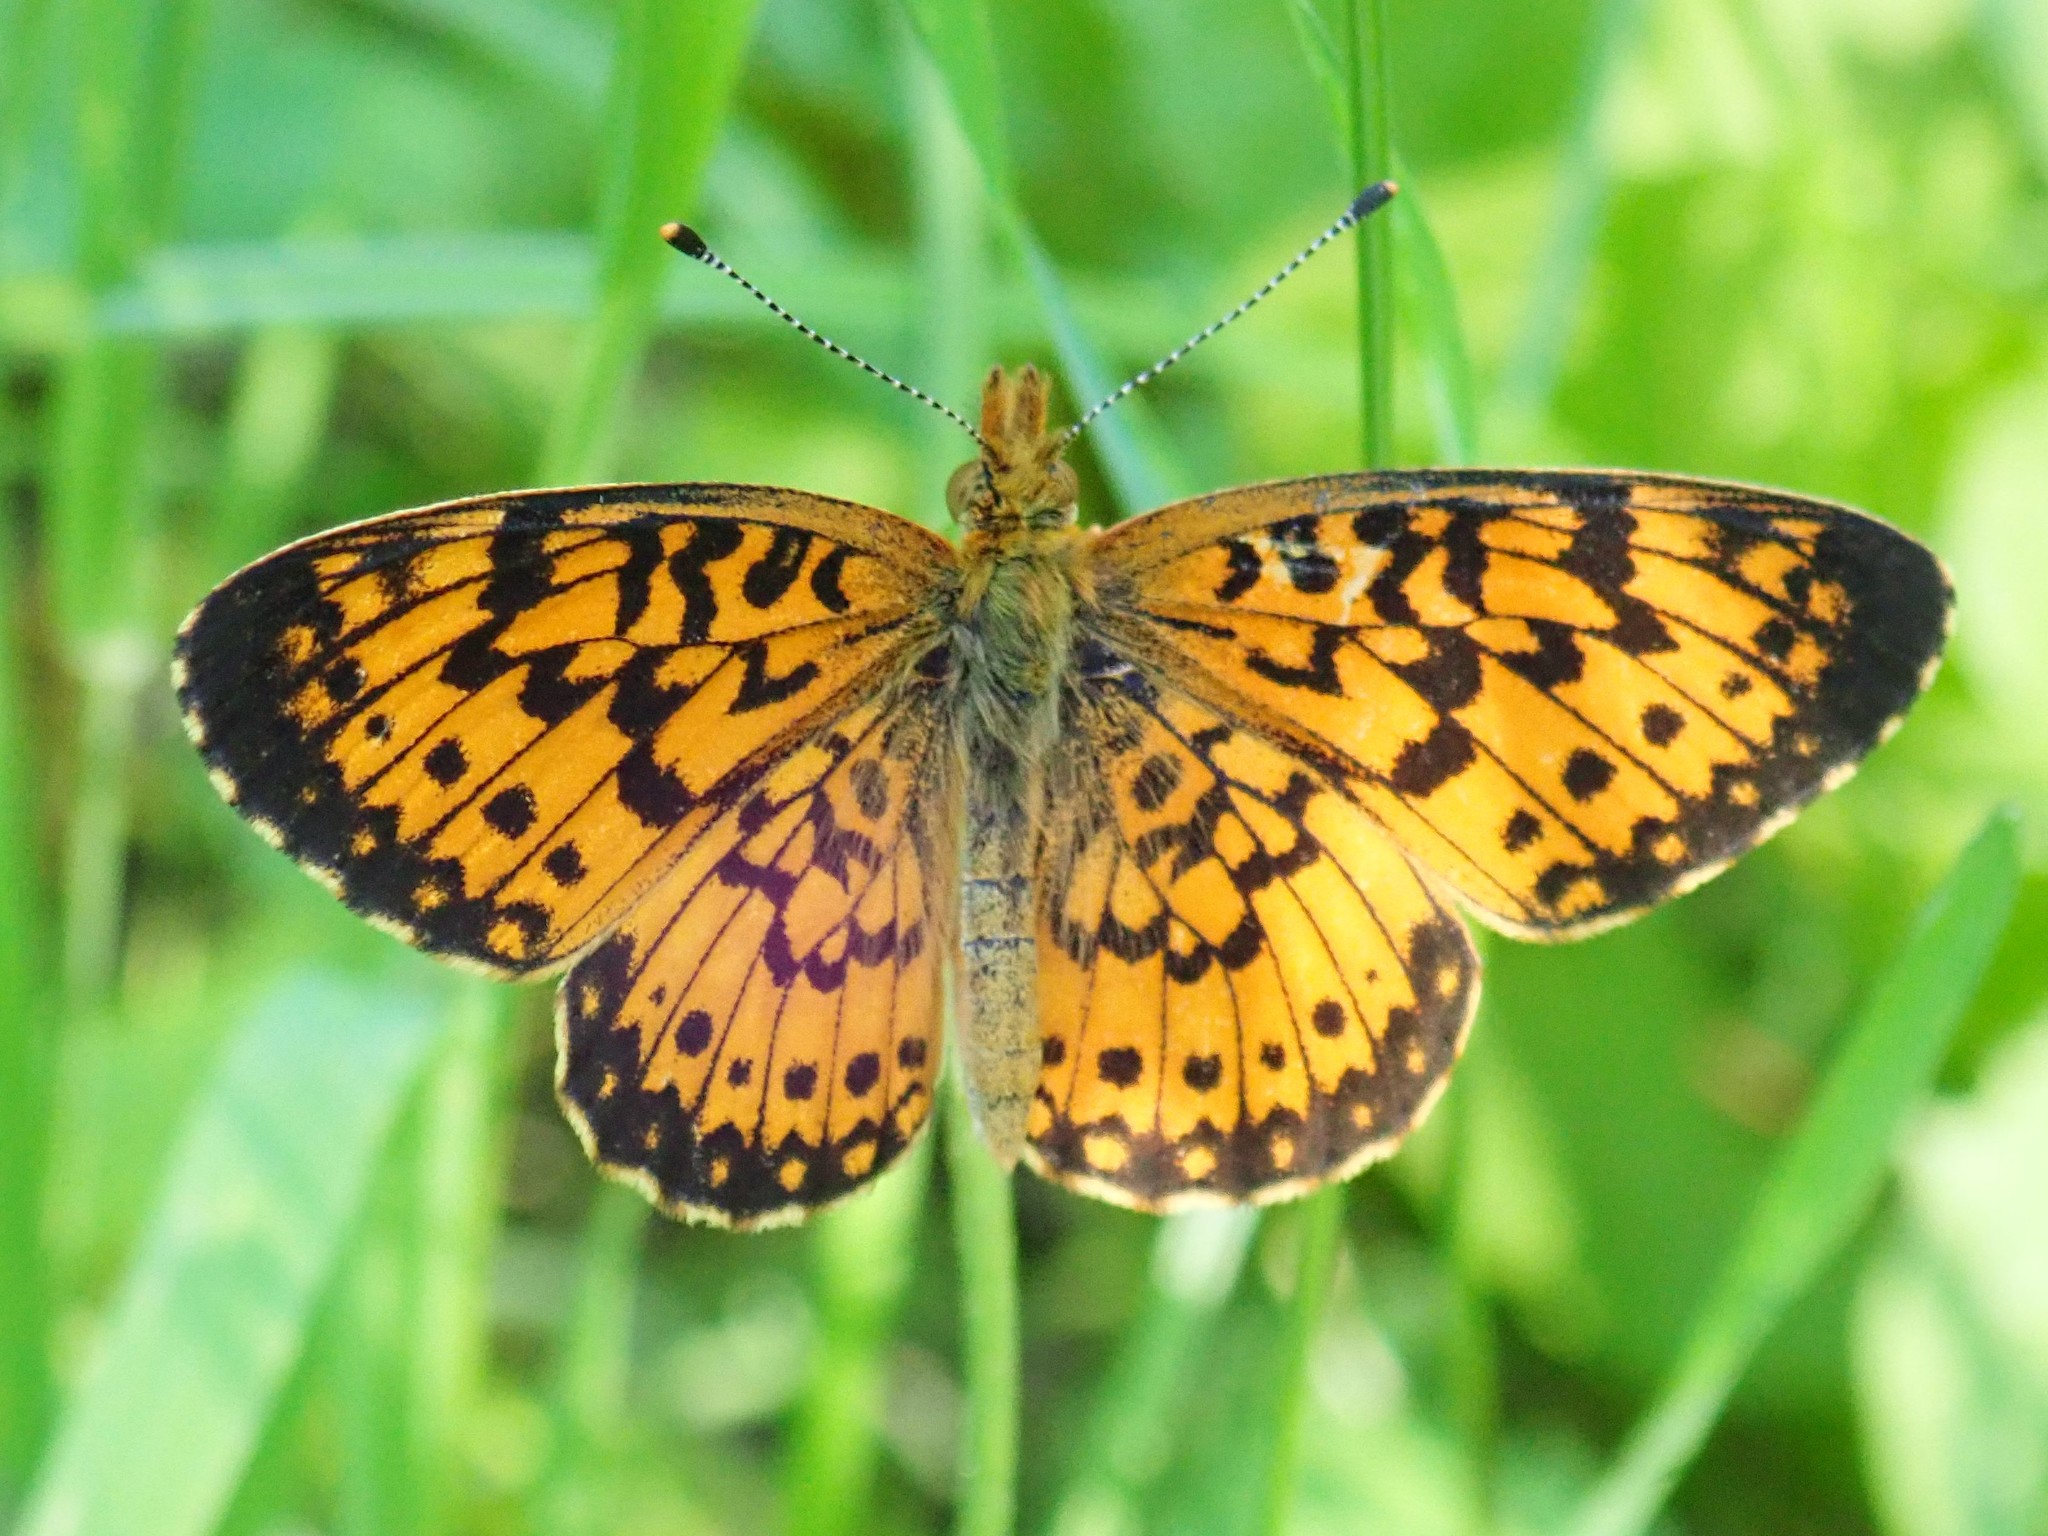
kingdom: Animalia
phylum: Arthropoda
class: Insecta
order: Lepidoptera
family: Nymphalidae
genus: Boloria
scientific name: Boloria
